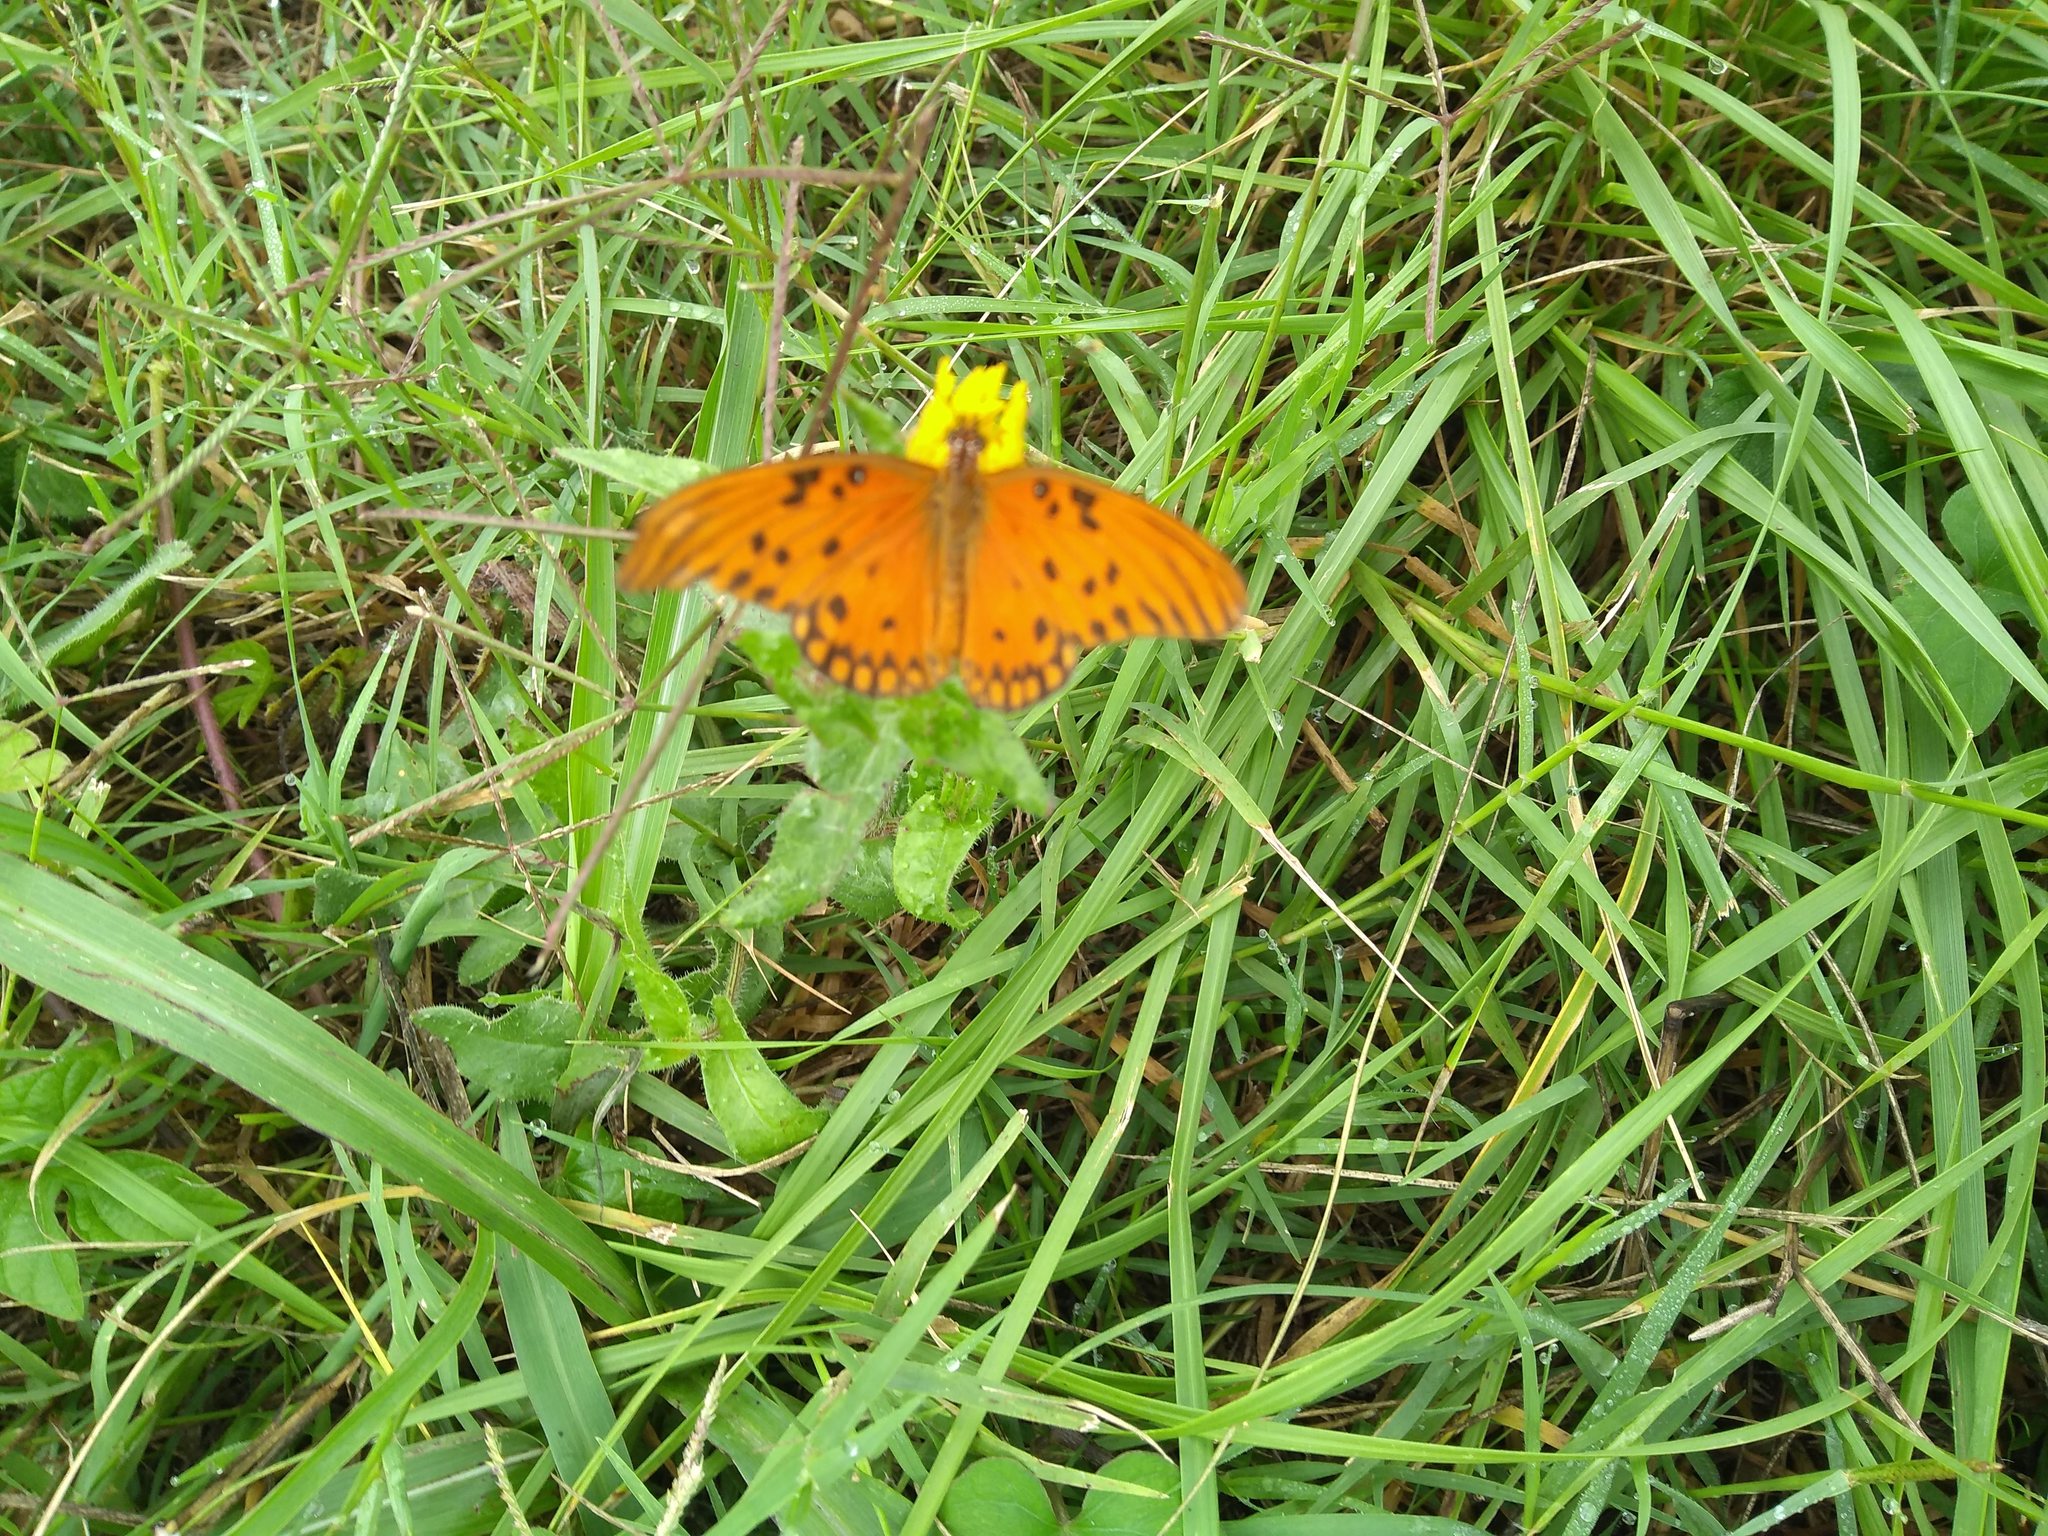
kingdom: Animalia
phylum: Arthropoda
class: Insecta
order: Lepidoptera
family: Nymphalidae
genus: Dione
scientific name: Dione vanillae
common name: Gulf fritillary
